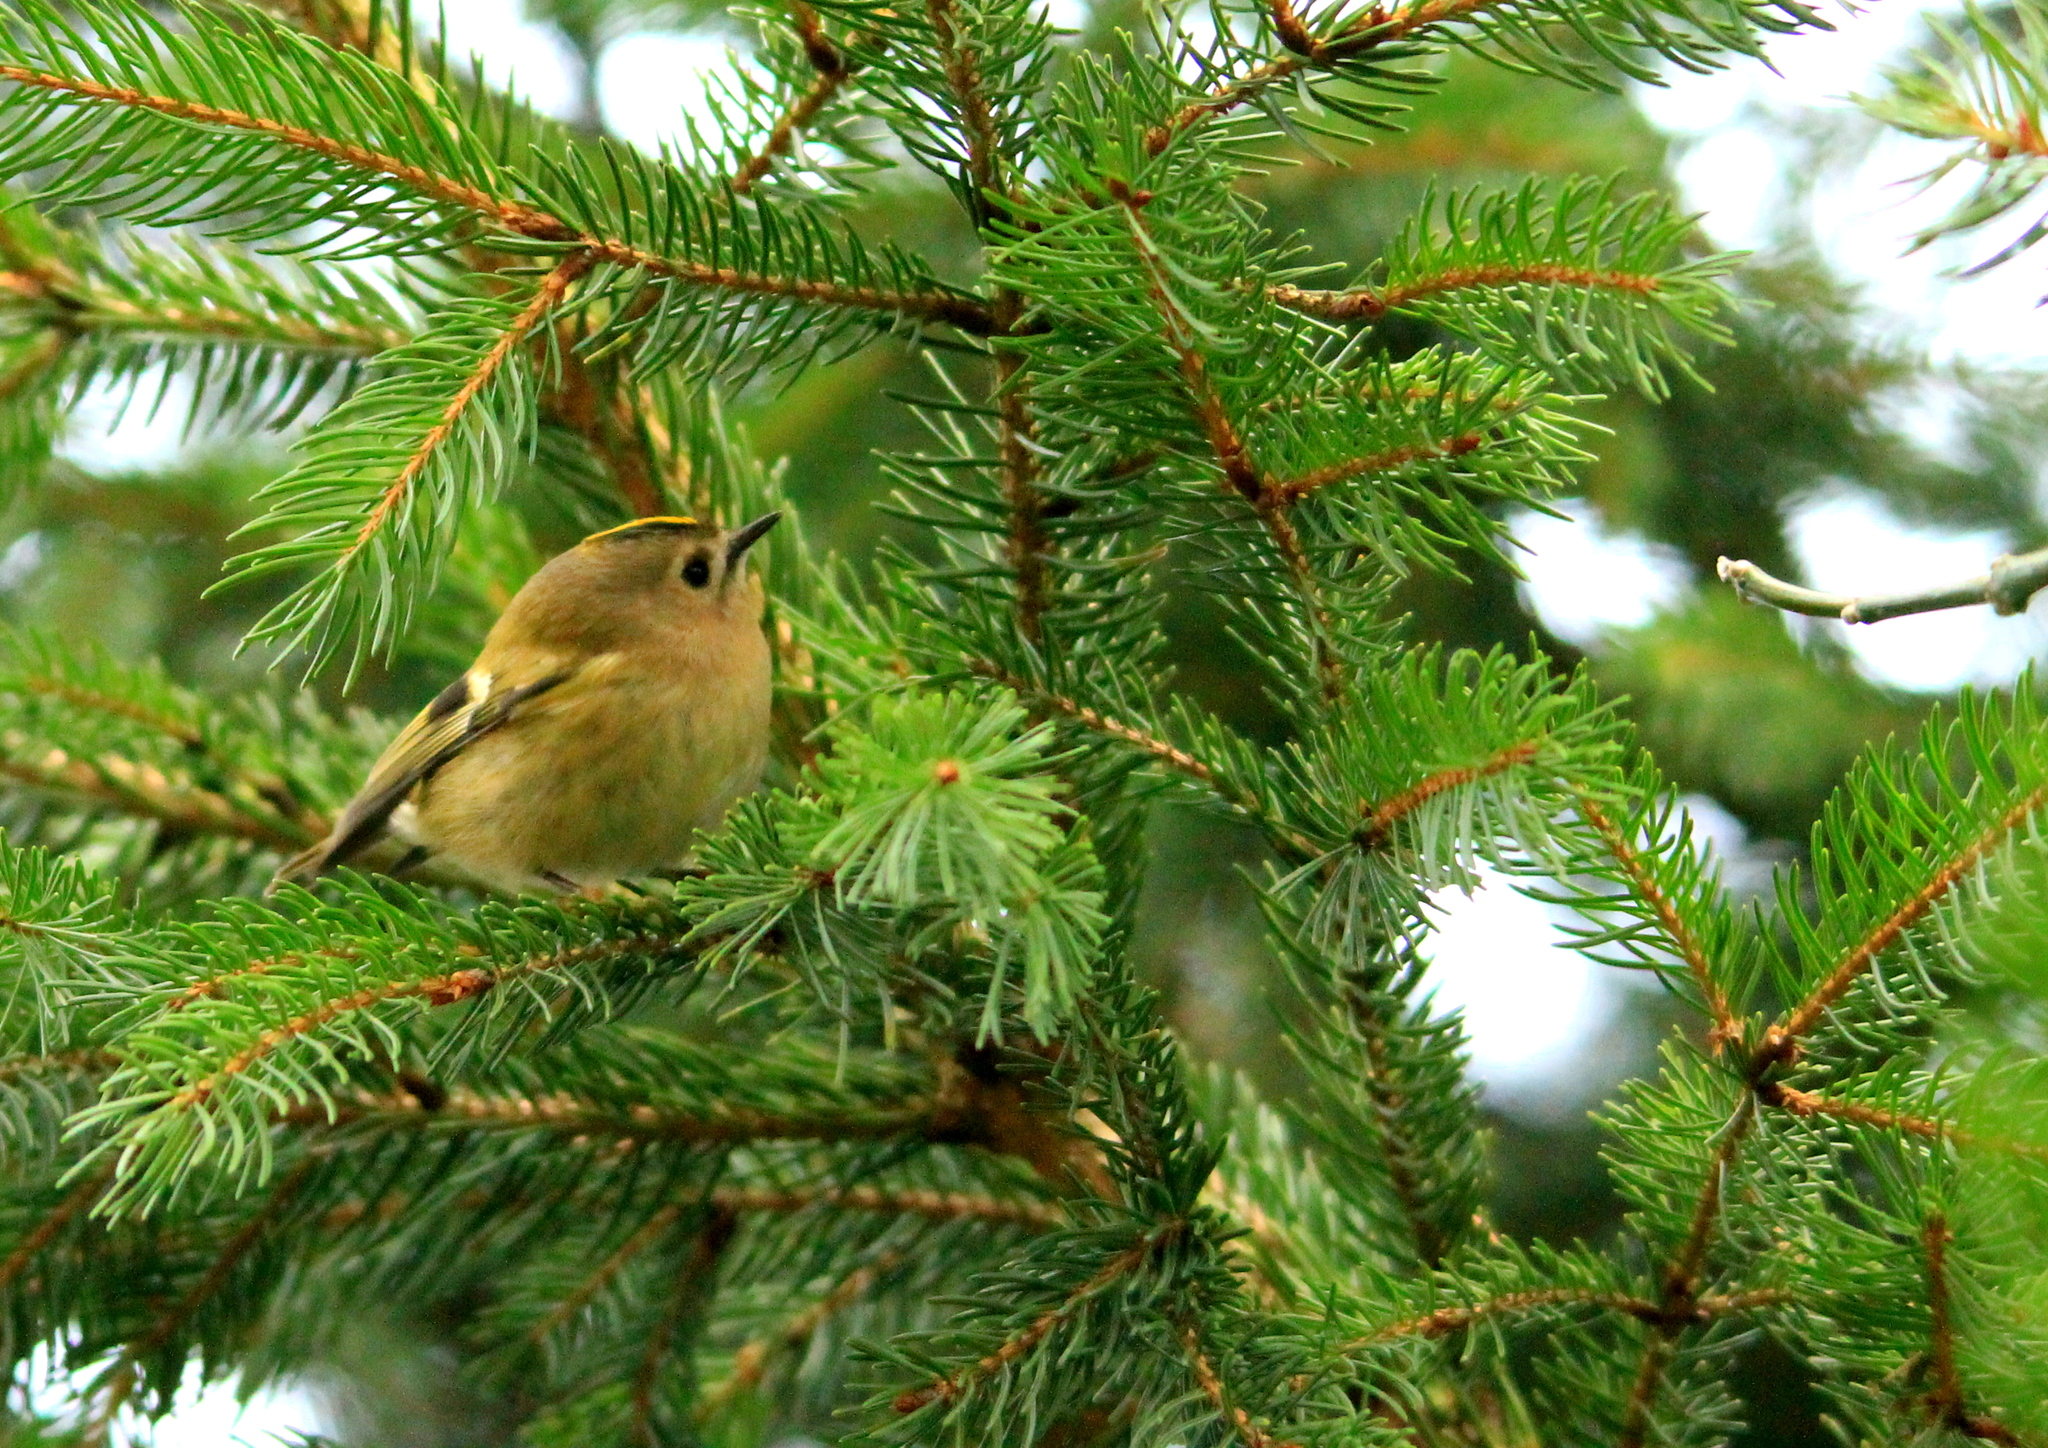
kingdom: Animalia
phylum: Chordata
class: Aves
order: Passeriformes
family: Regulidae
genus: Regulus
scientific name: Regulus regulus
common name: Goldcrest
